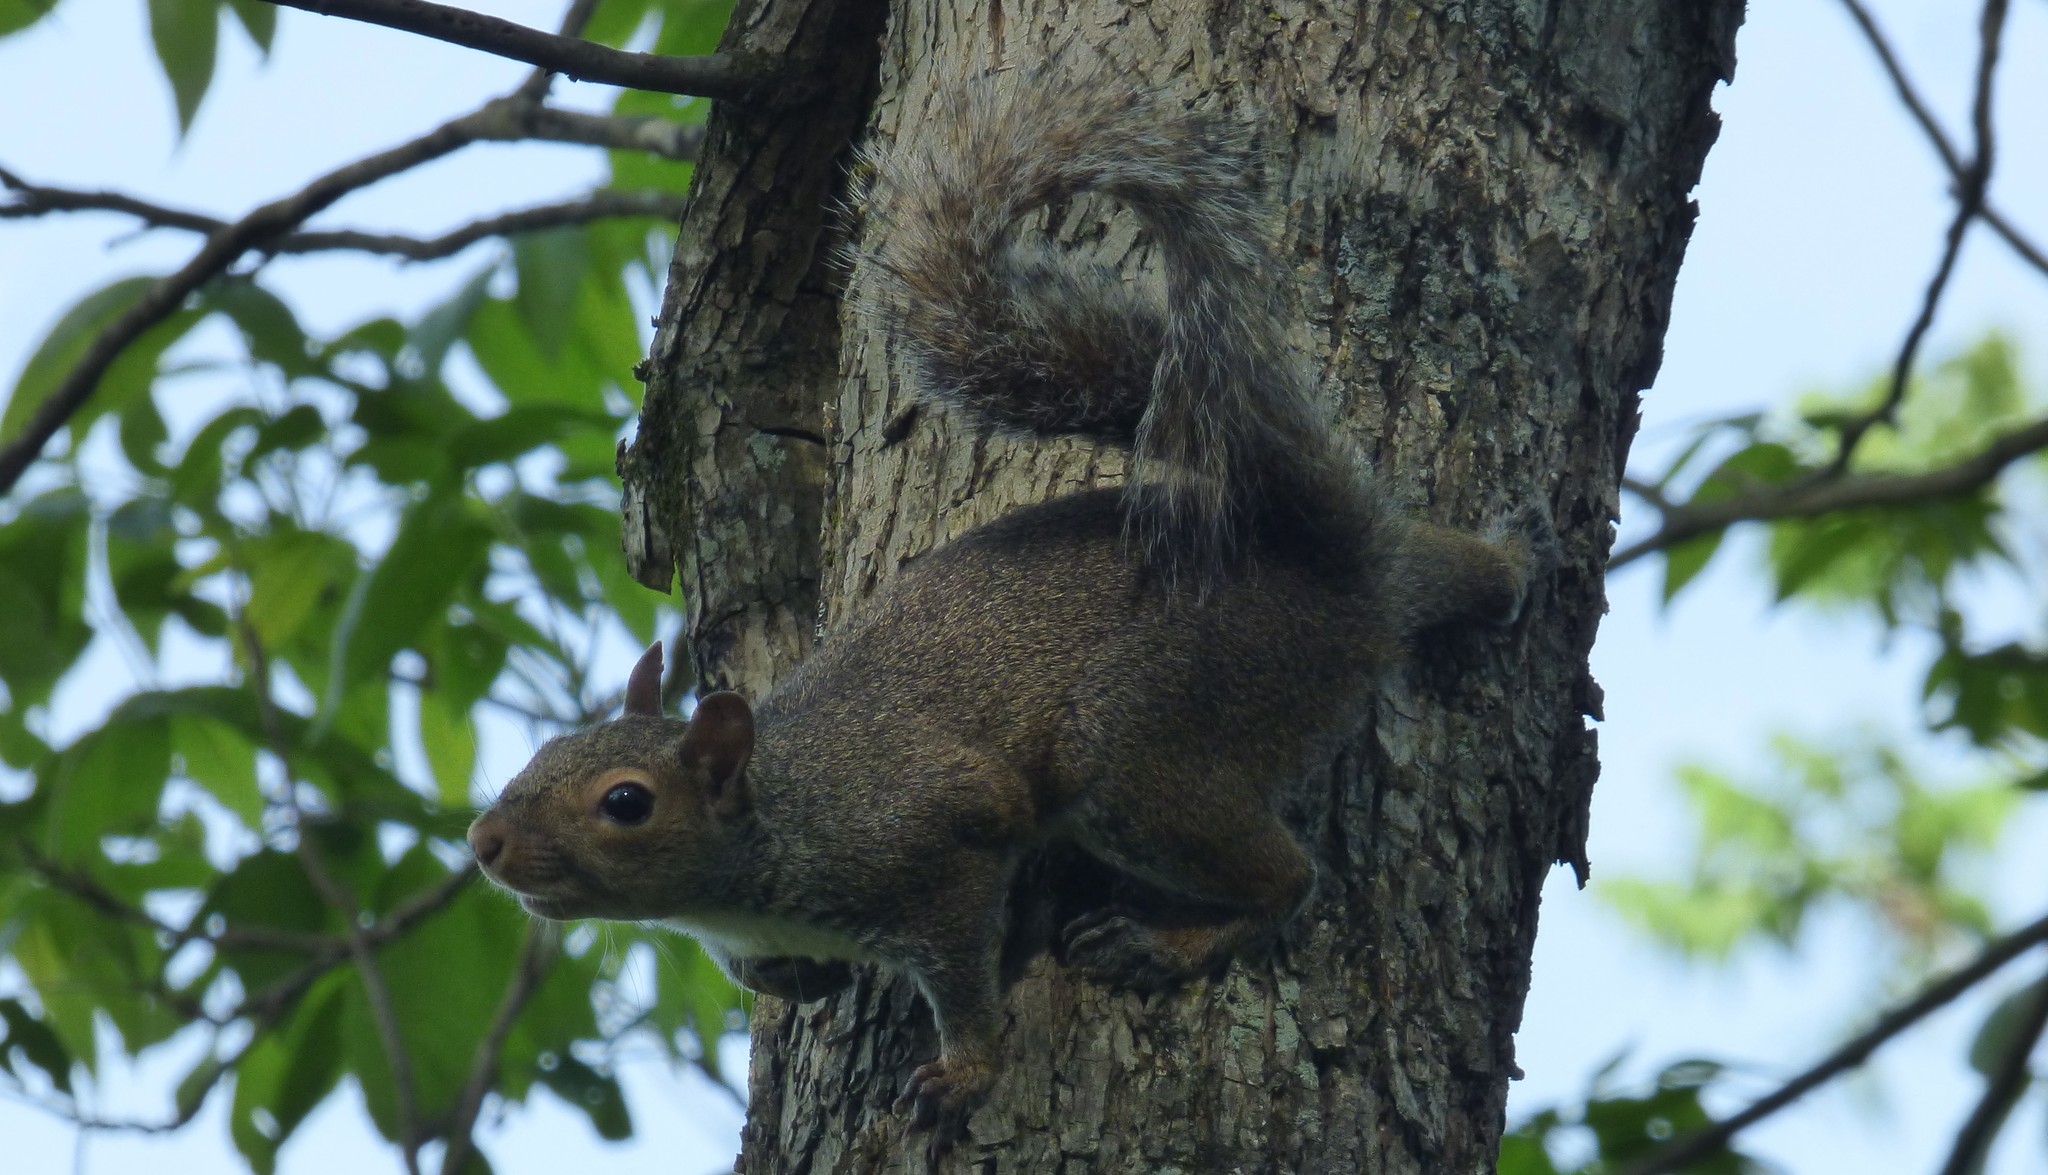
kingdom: Animalia
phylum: Chordata
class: Mammalia
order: Rodentia
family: Sciuridae
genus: Sciurus
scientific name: Sciurus carolinensis
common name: Eastern gray squirrel
